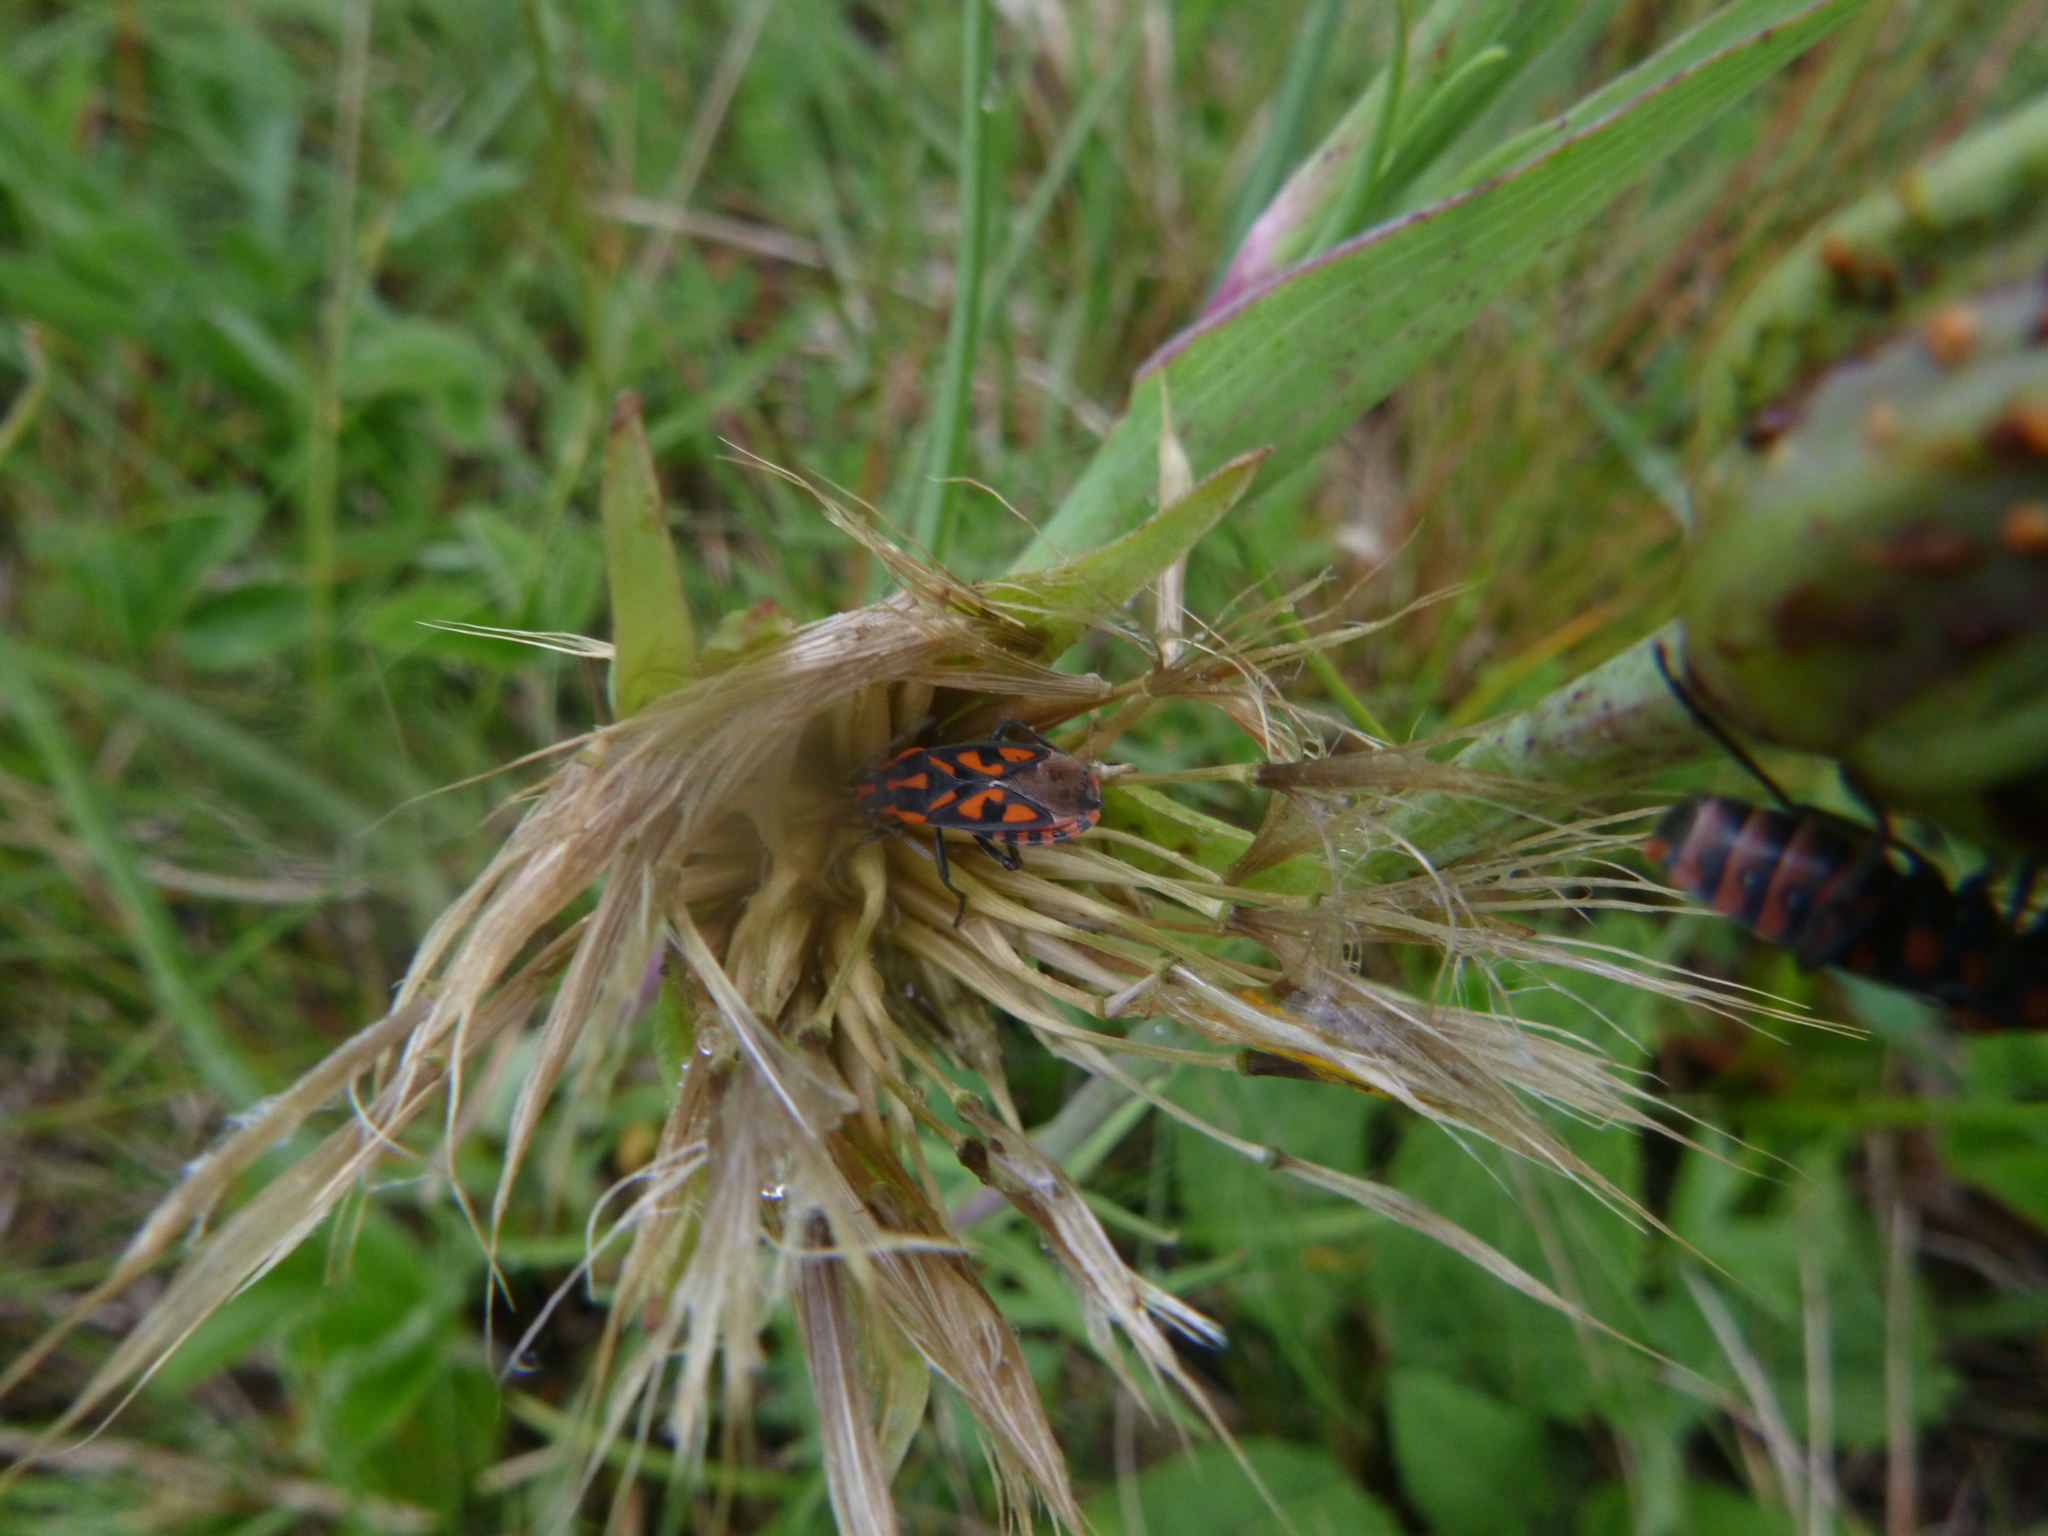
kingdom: Animalia
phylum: Arthropoda
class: Insecta
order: Hemiptera
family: Lygaeidae
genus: Spilostethus
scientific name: Spilostethus saxatilis
